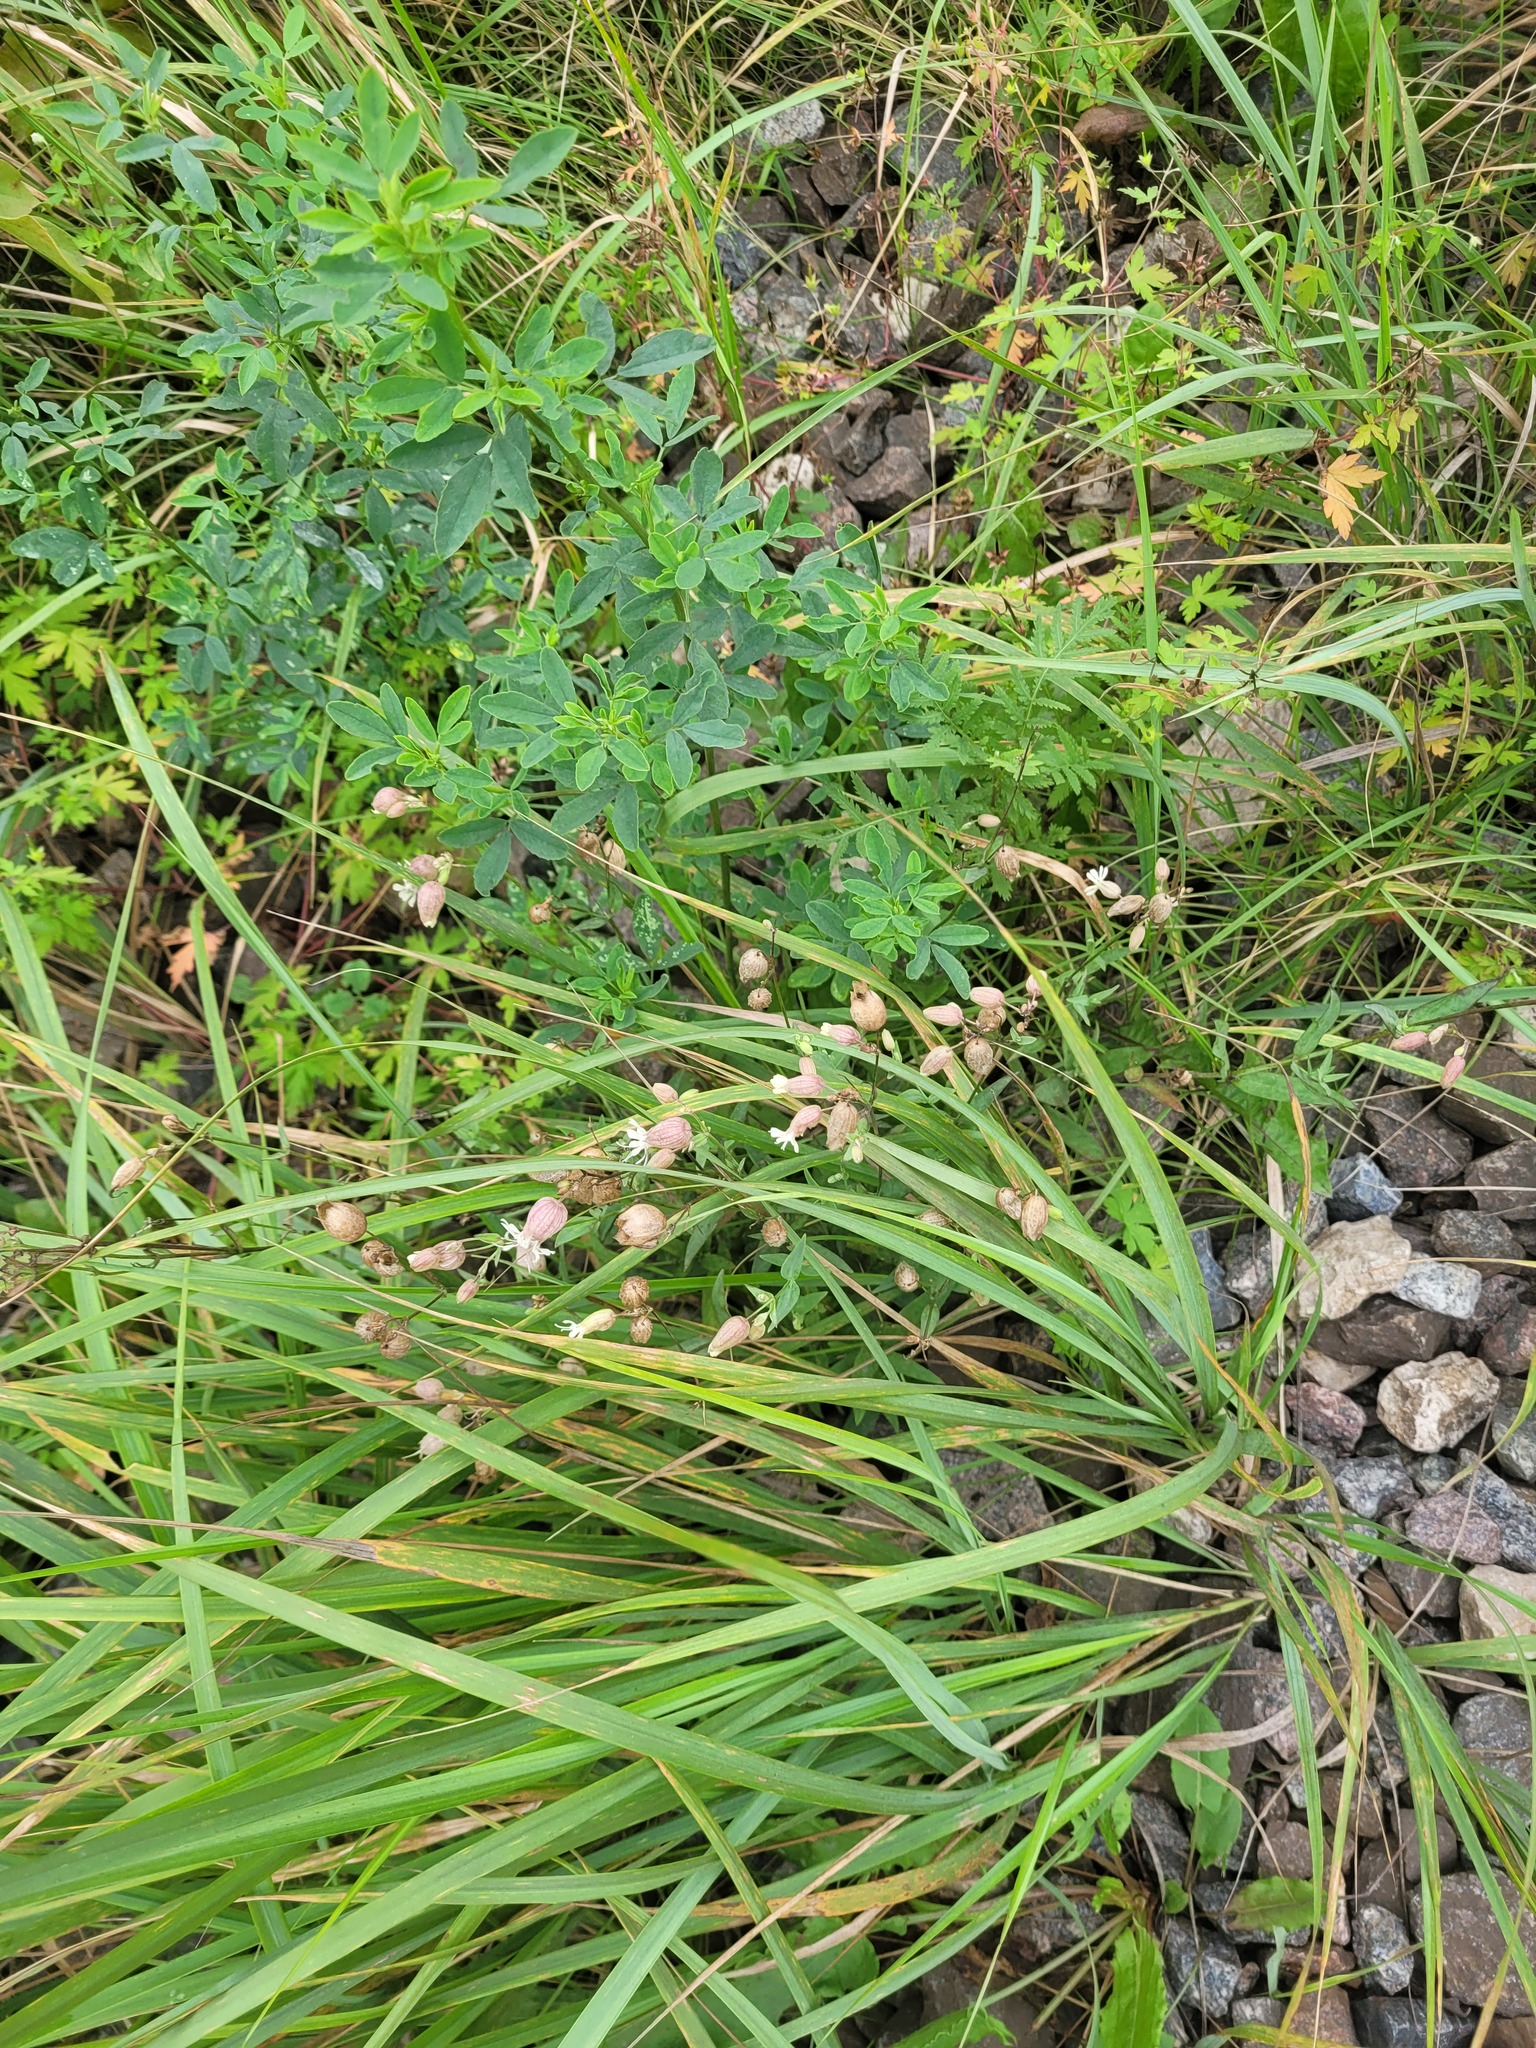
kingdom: Plantae
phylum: Tracheophyta
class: Magnoliopsida
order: Caryophyllales
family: Caryophyllaceae
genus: Silene
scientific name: Silene vulgaris
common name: Bladder campion
